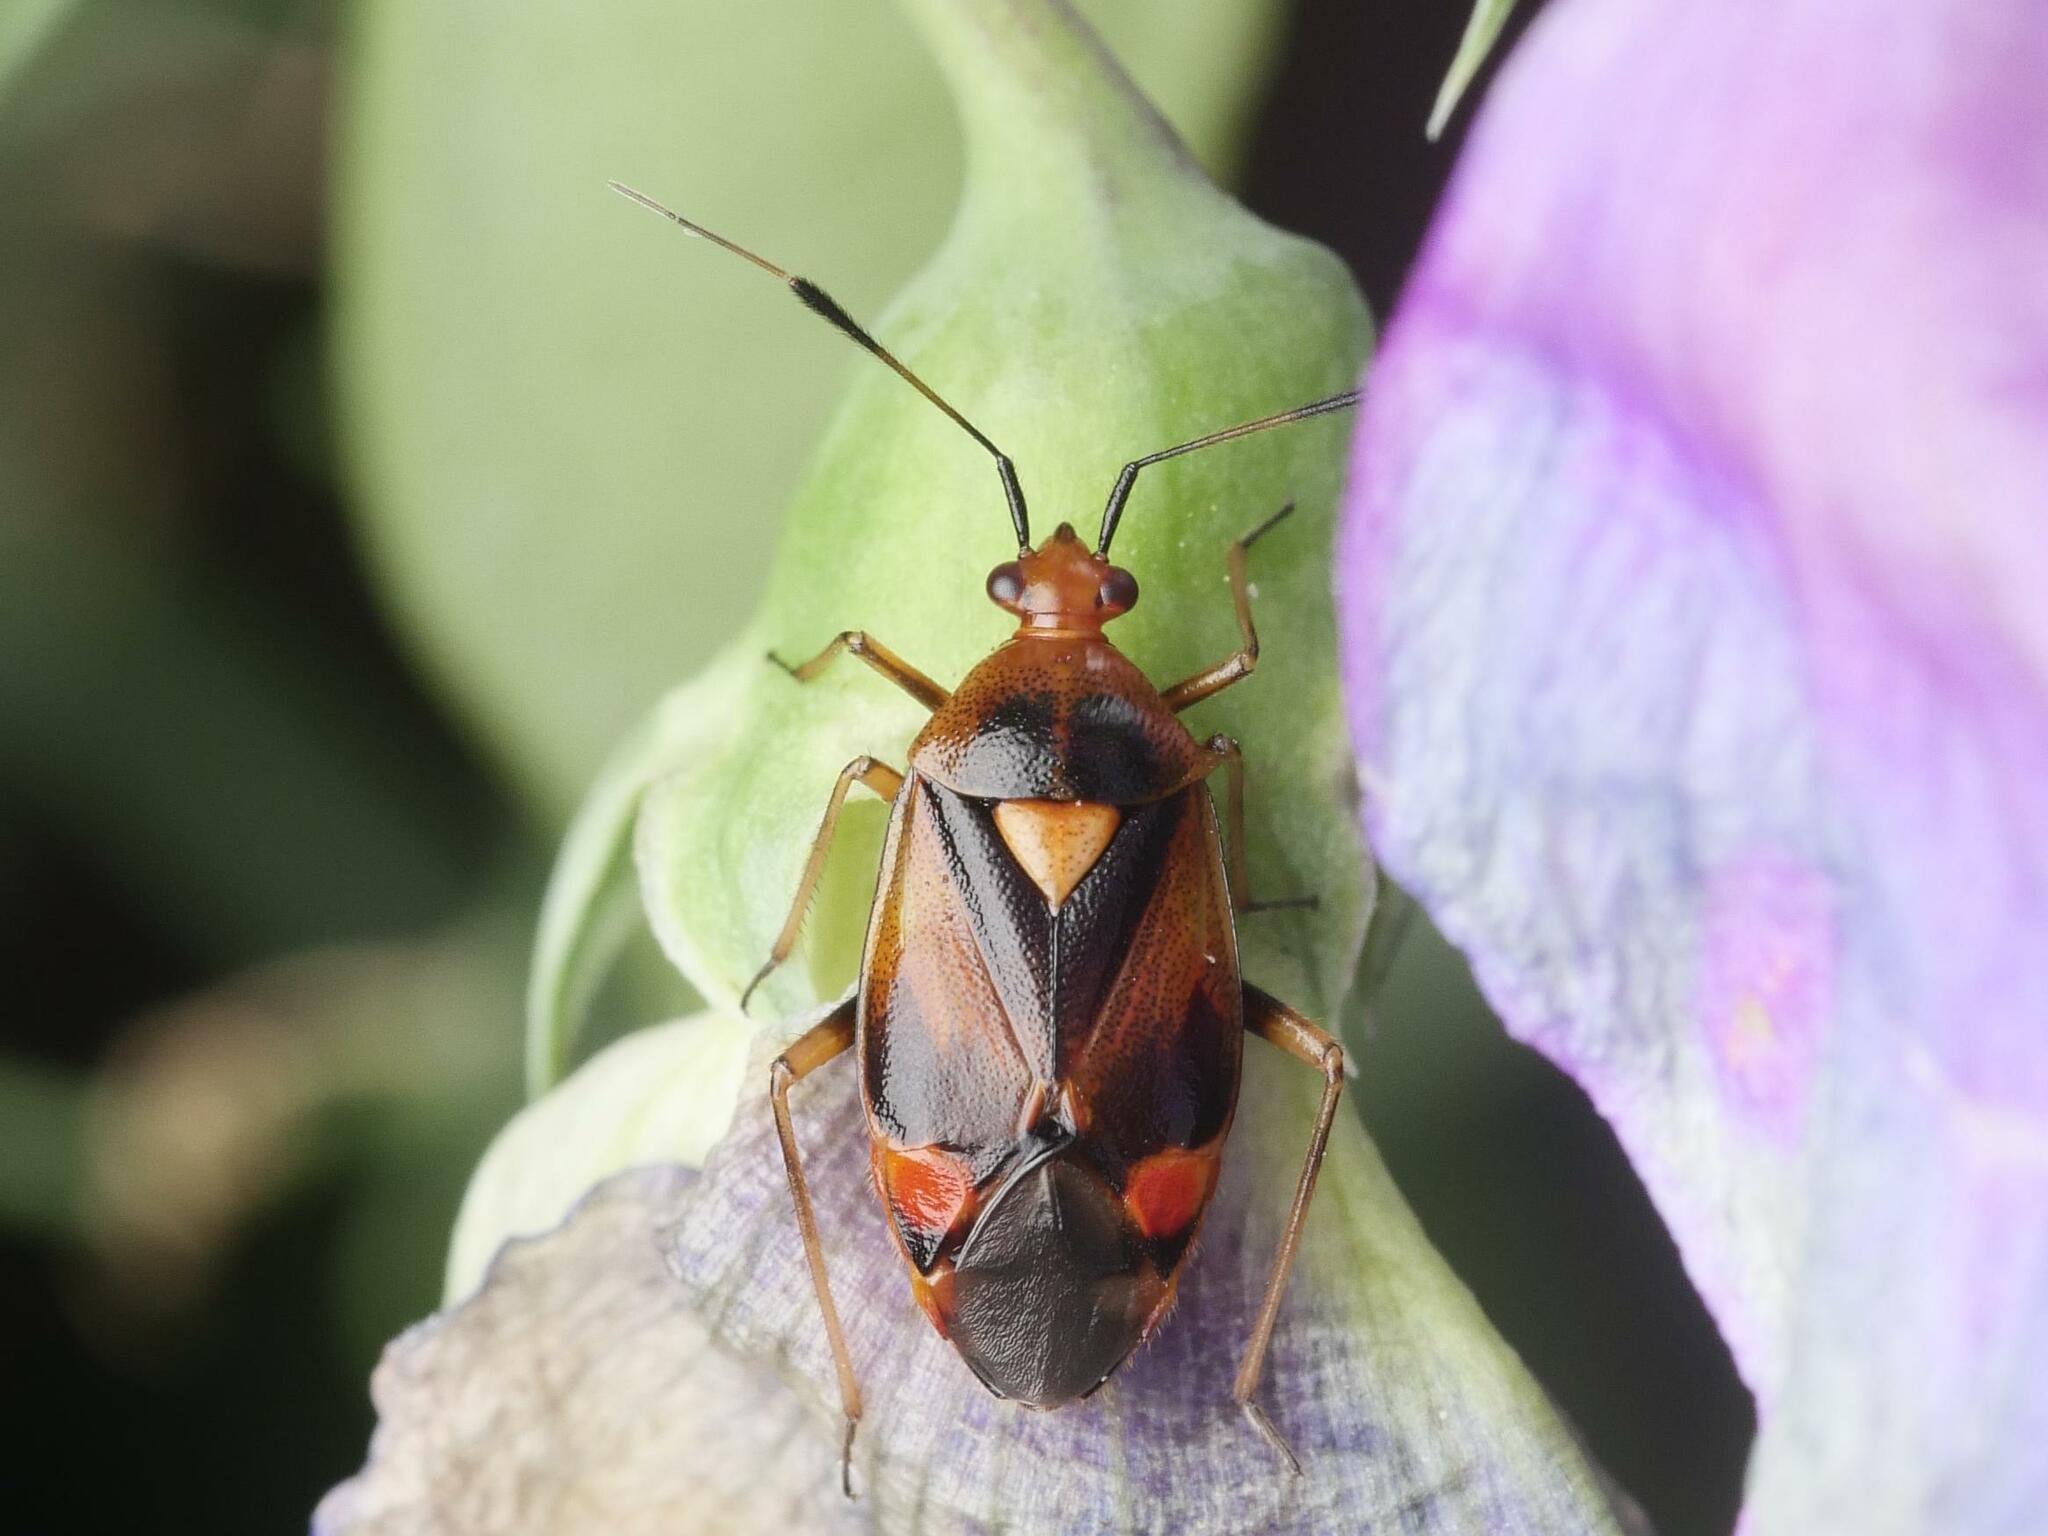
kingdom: Animalia
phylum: Arthropoda
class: Insecta
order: Hemiptera
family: Miridae
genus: Deraeocoris
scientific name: Deraeocoris ruber
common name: Plant bug
